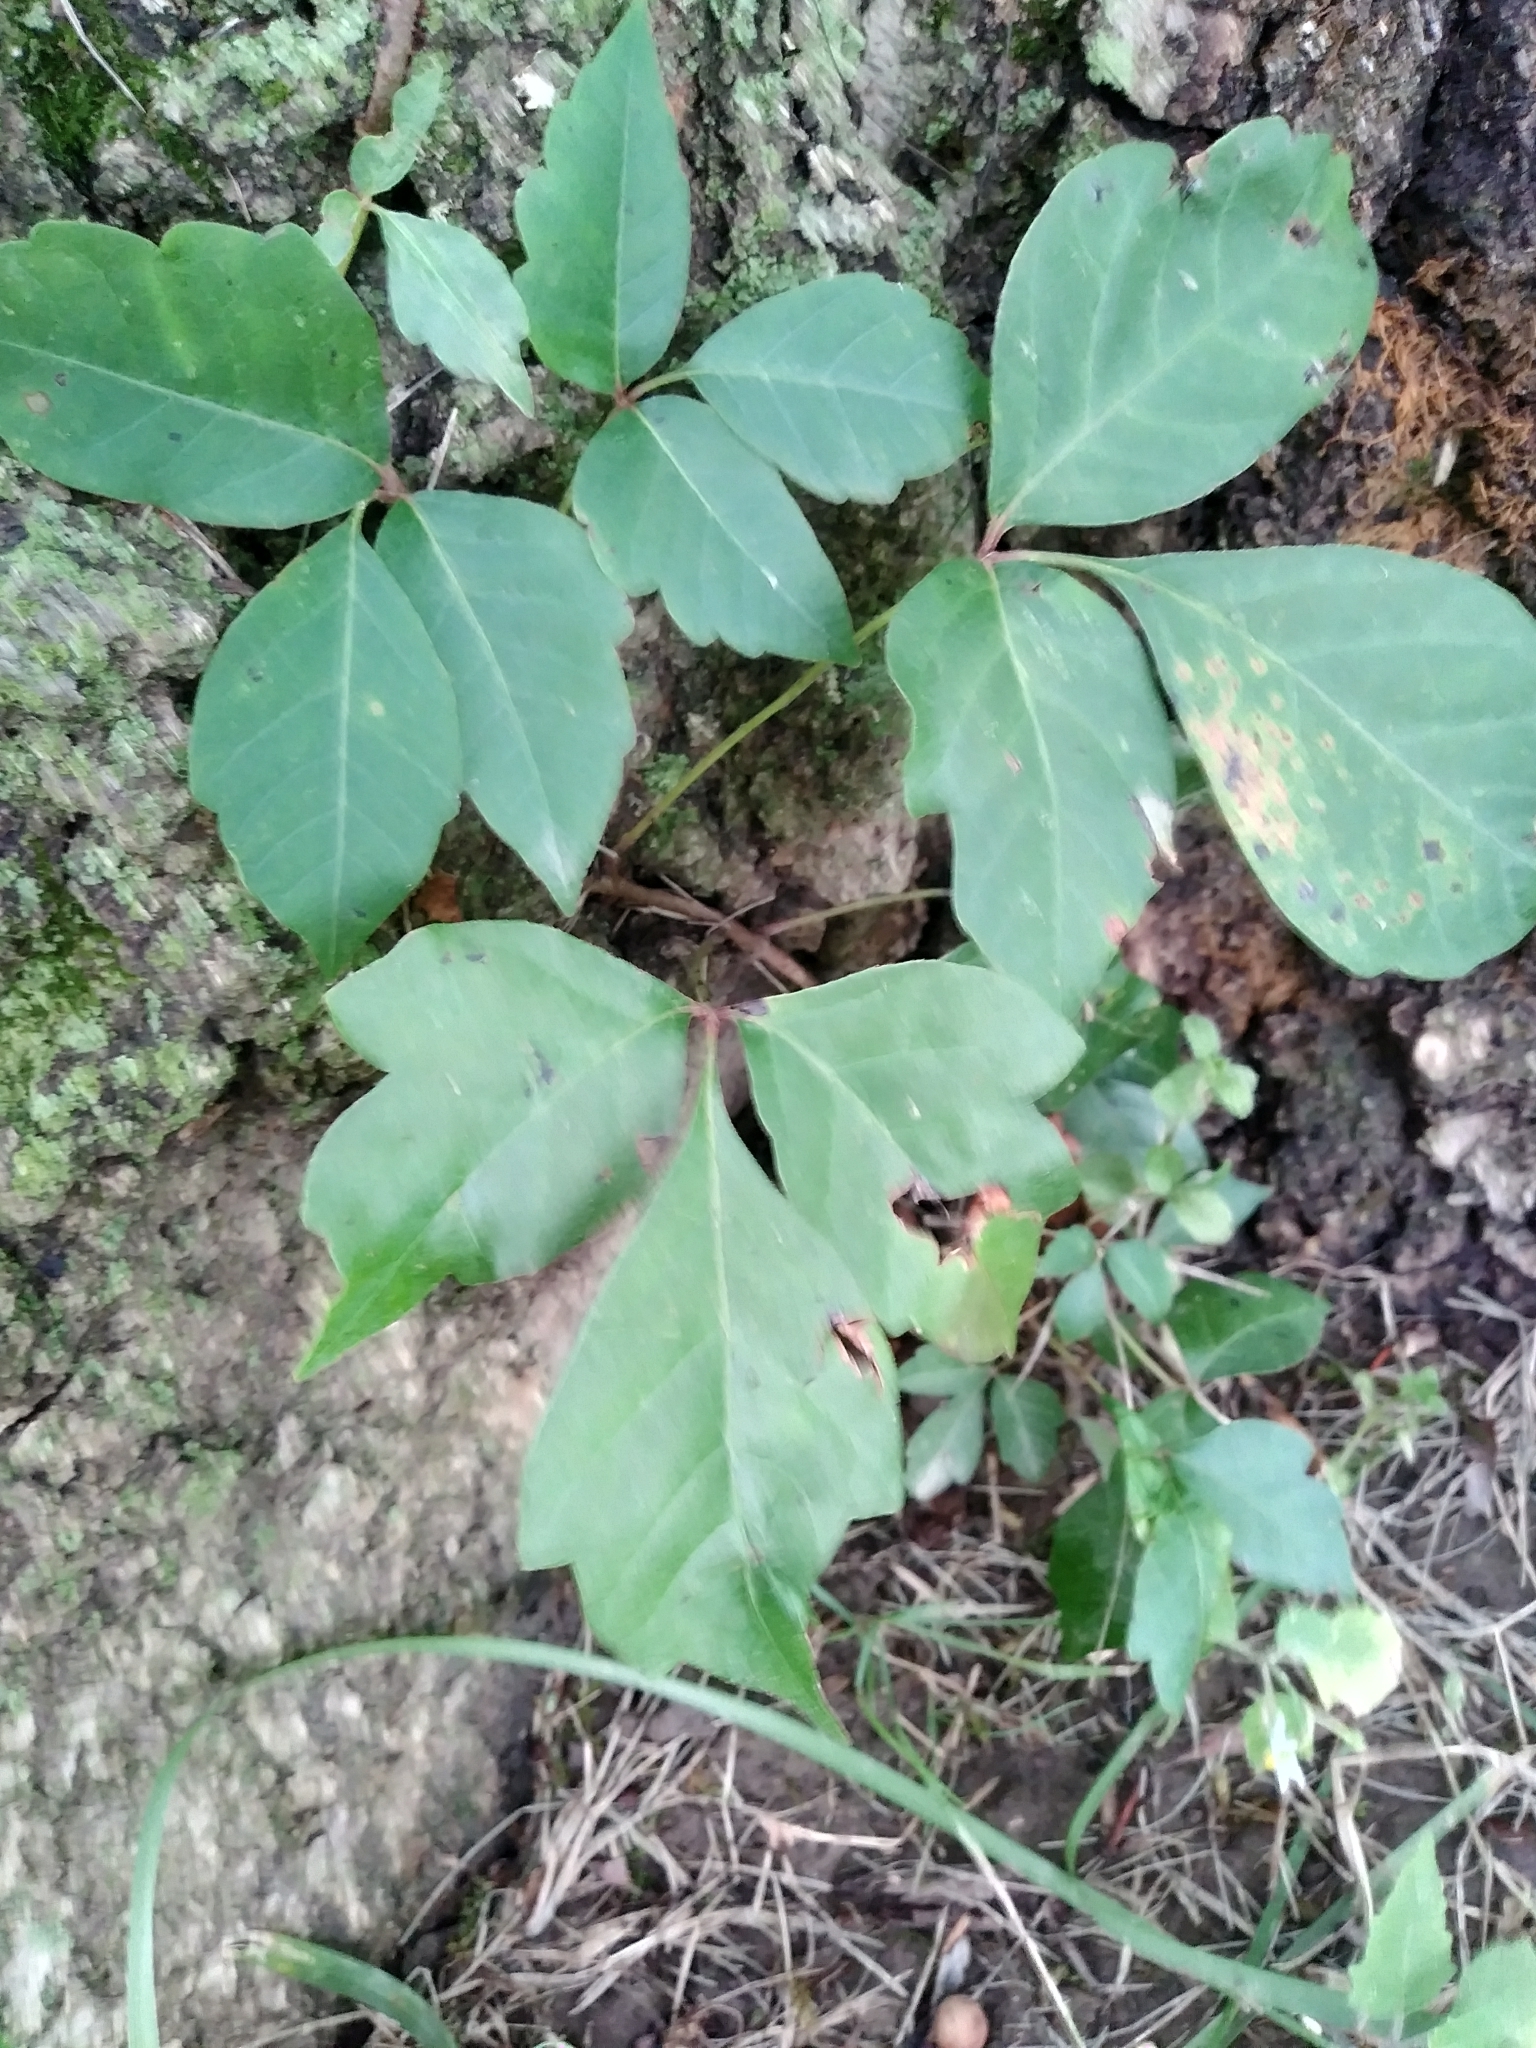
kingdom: Plantae
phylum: Tracheophyta
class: Magnoliopsida
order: Sapindales
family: Anacardiaceae
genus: Toxicodendron
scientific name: Toxicodendron radicans
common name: Poison ivy
